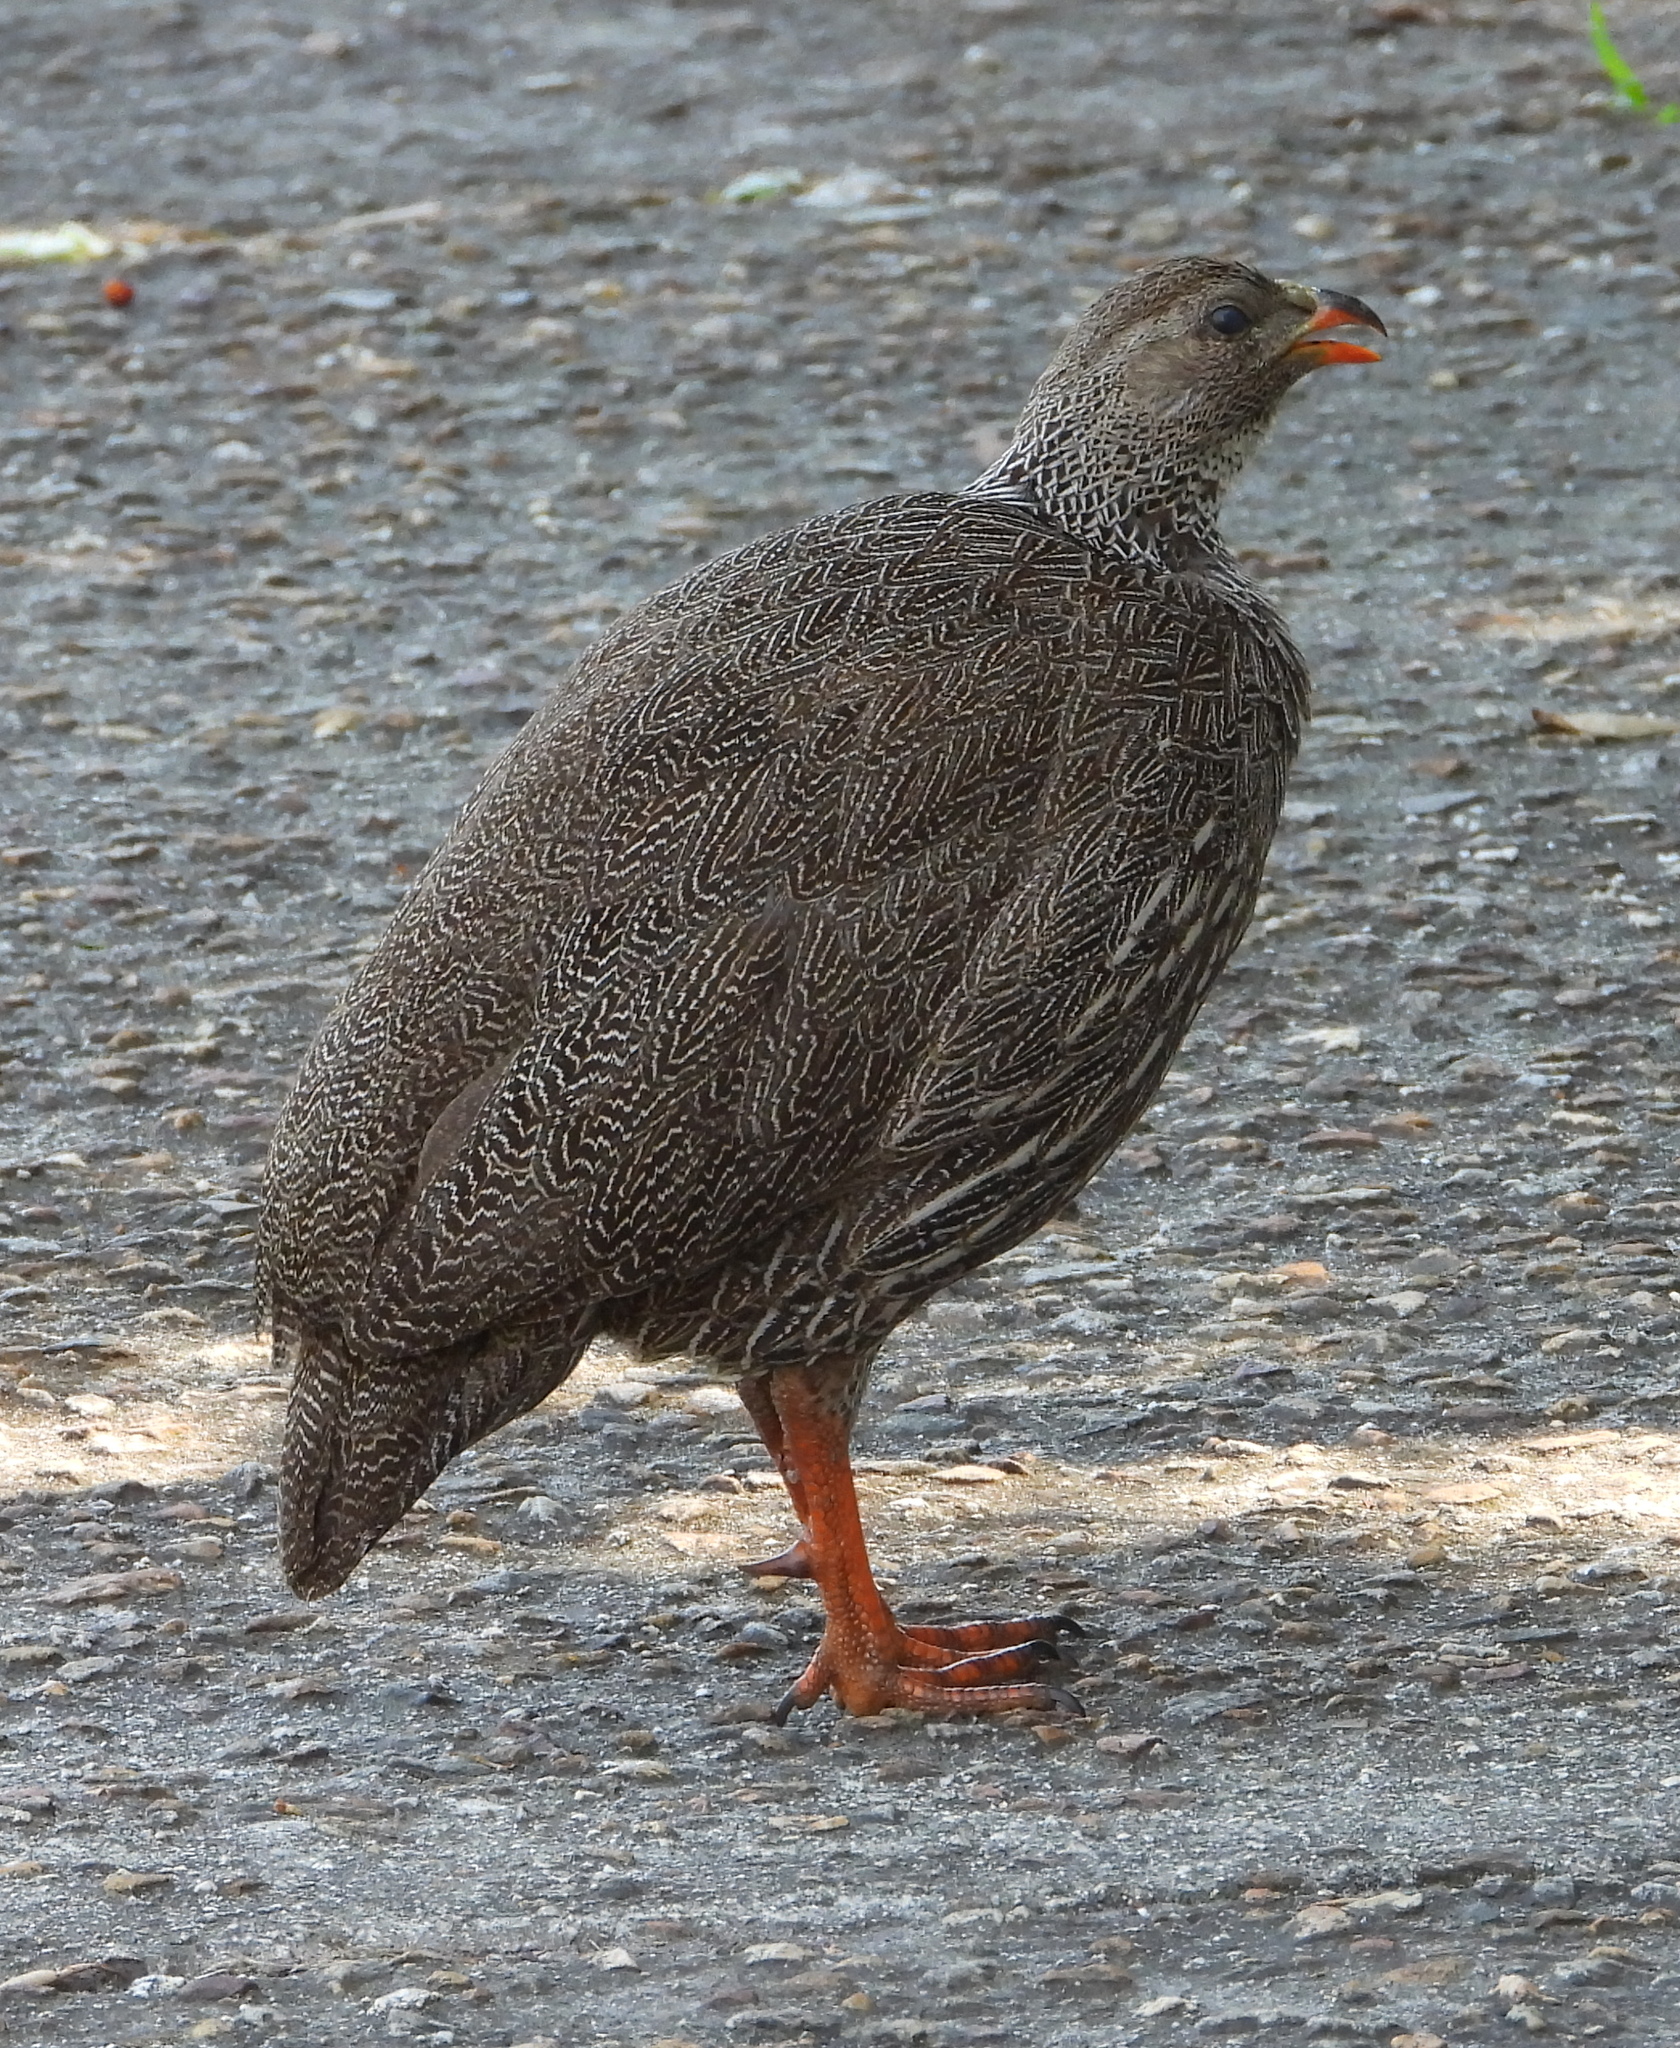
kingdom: Animalia
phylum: Chordata
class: Aves
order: Galliformes
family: Phasianidae
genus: Pternistis
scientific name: Pternistis capensis
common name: Cape spurfowl
